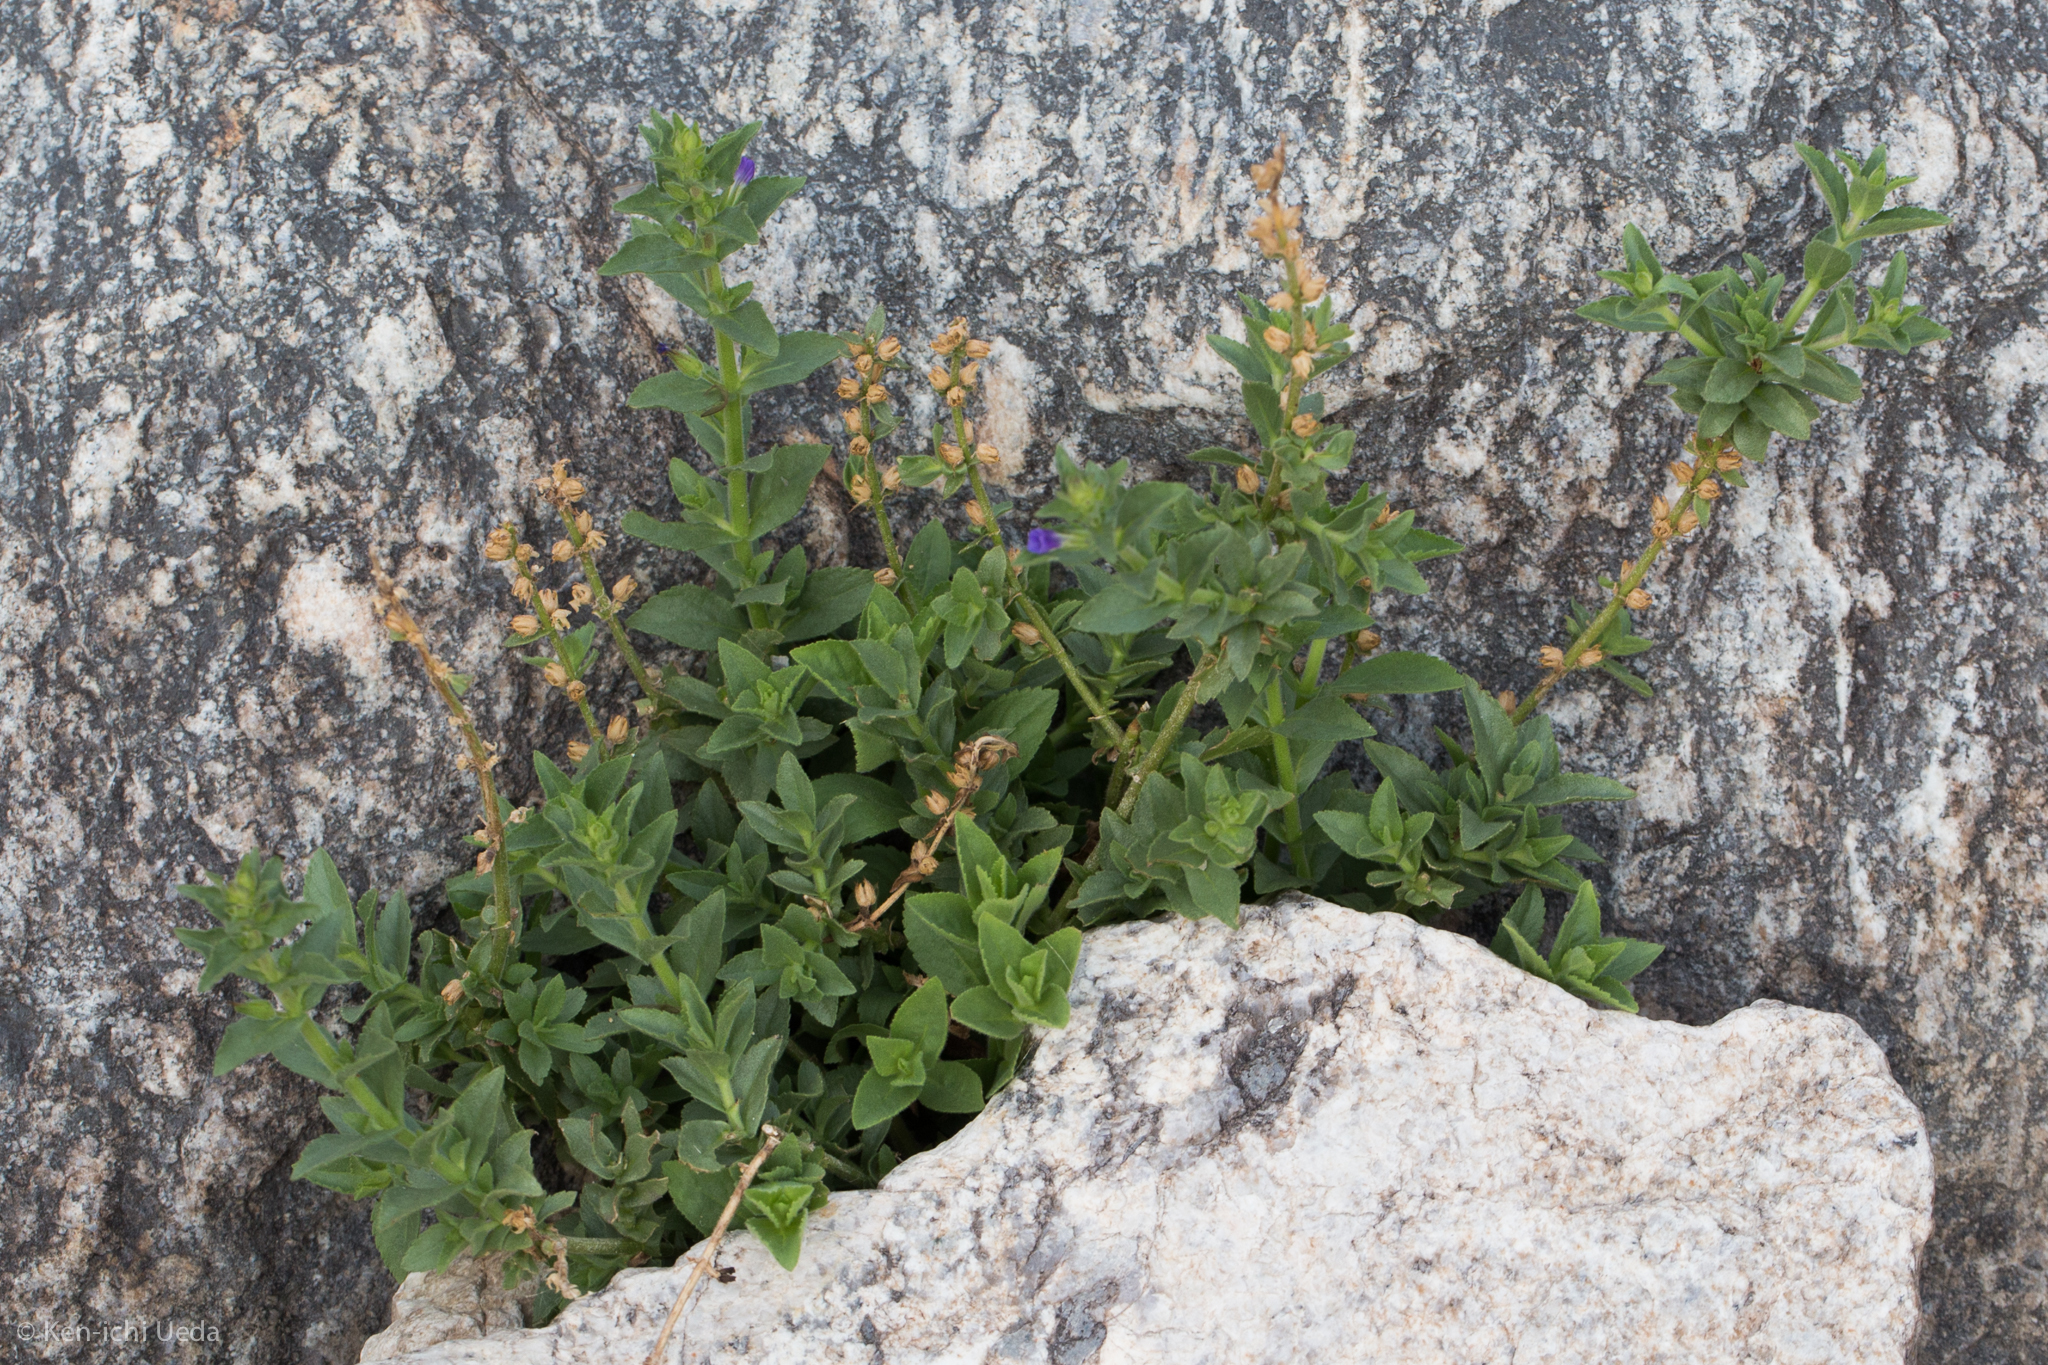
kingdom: Plantae
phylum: Tracheophyta
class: Magnoliopsida
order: Lamiales
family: Plantaginaceae
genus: Stemodia
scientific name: Stemodia durantifolia
